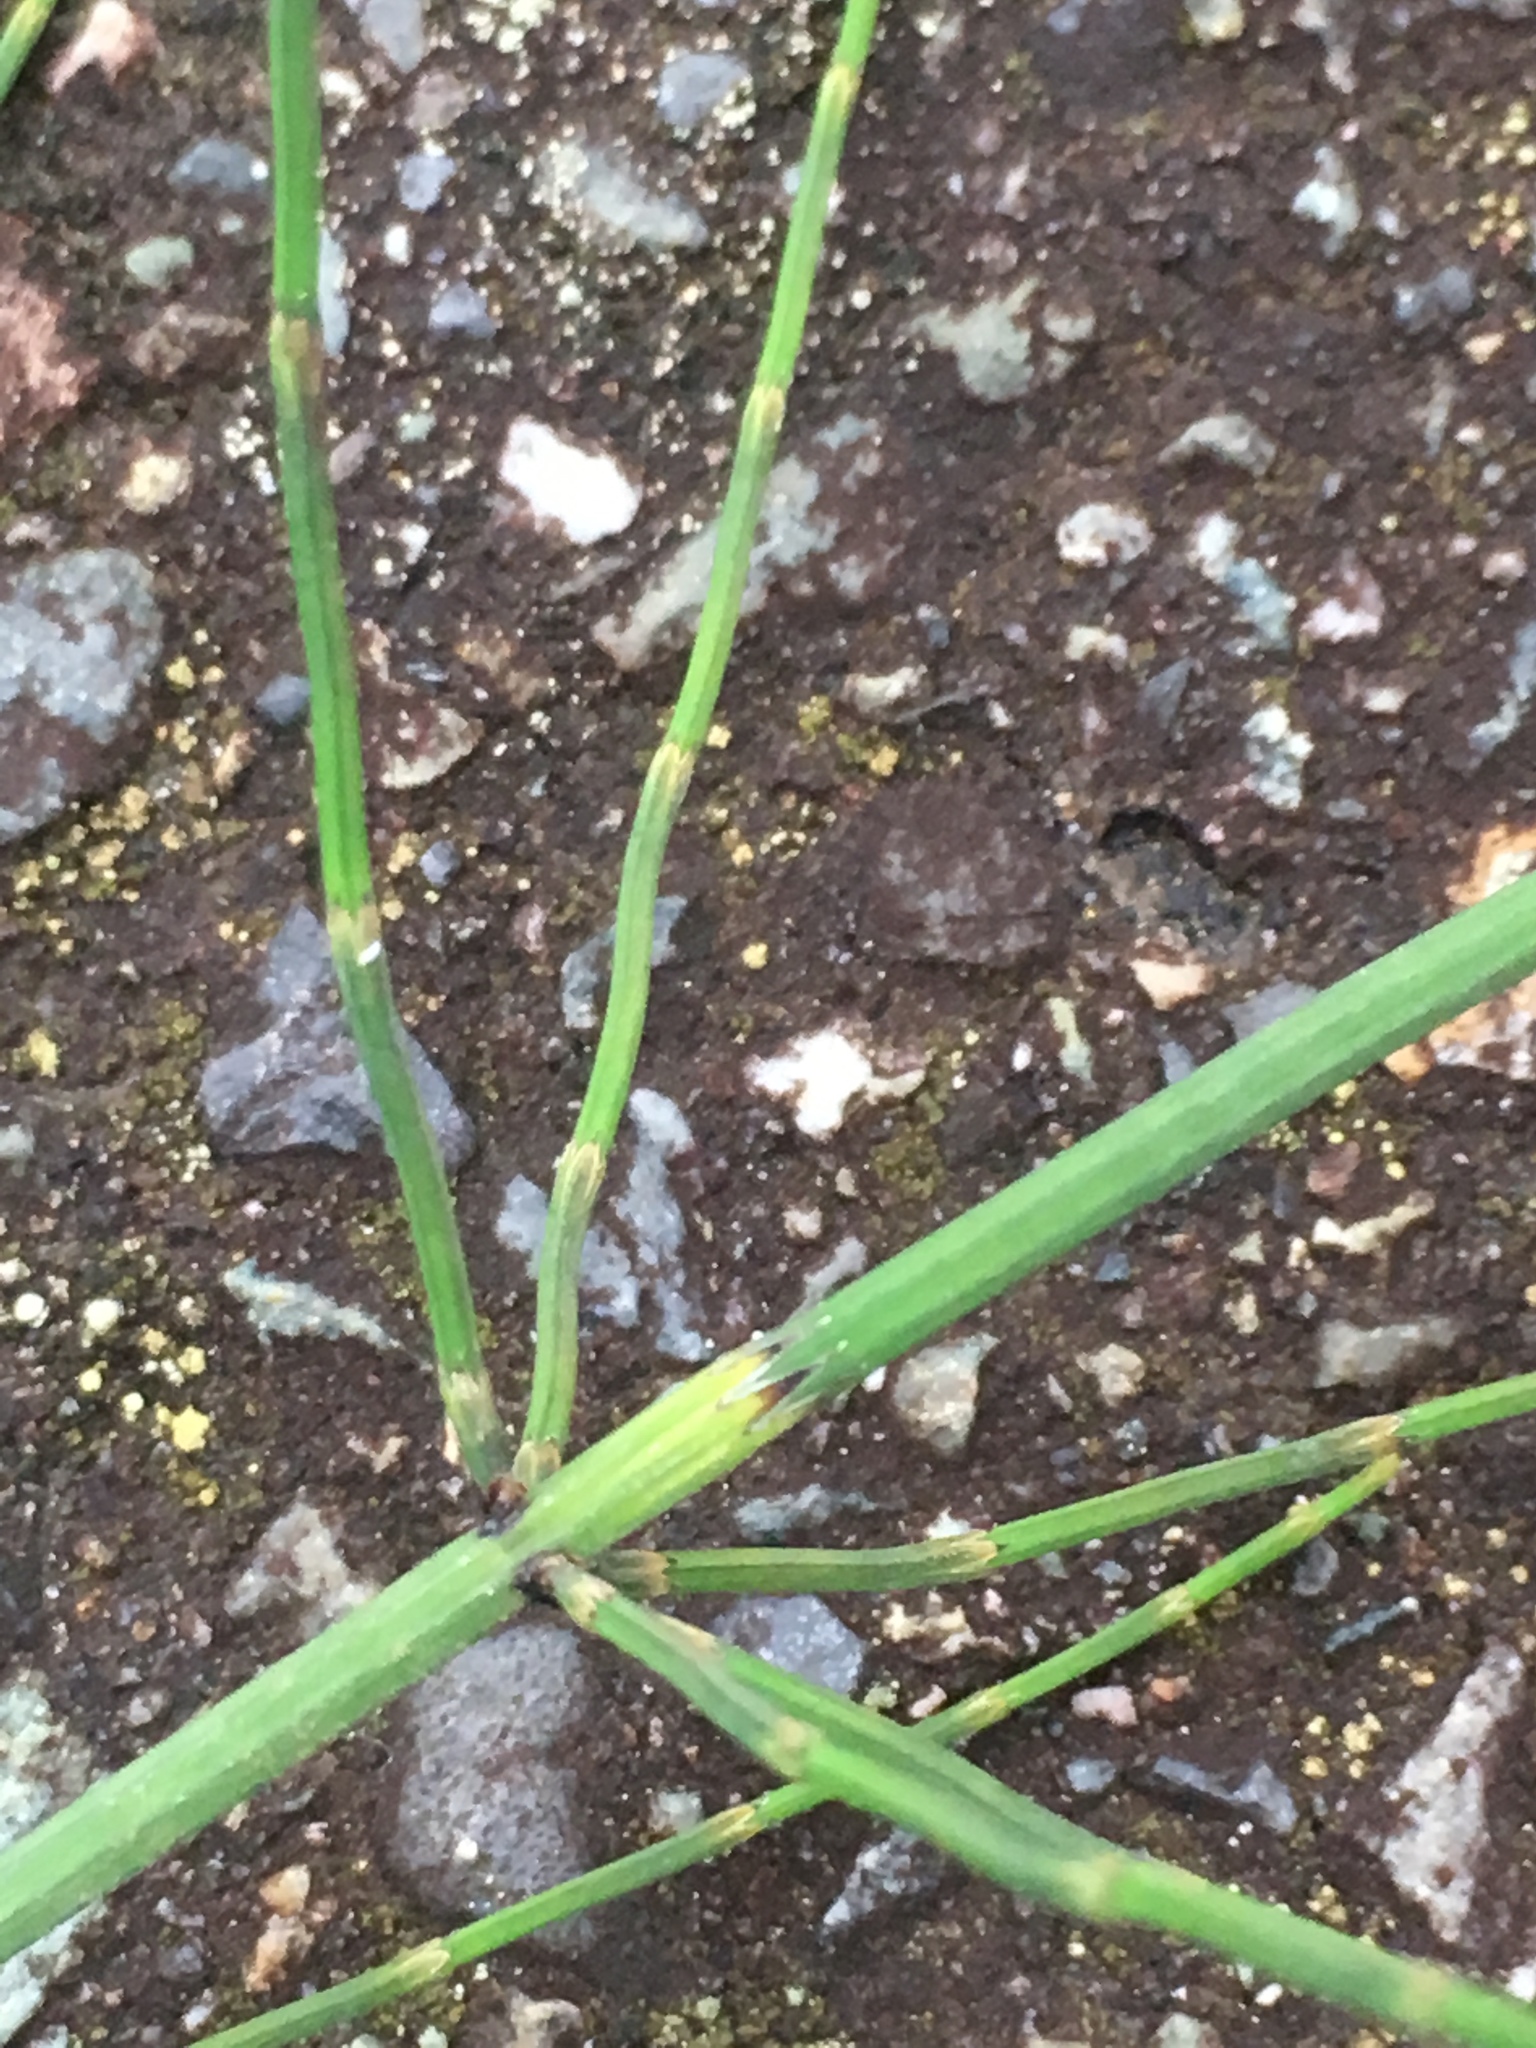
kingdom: Plantae
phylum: Tracheophyta
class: Polypodiopsida
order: Equisetales
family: Equisetaceae
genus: Equisetum
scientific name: Equisetum palustre
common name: Marsh horsetail
